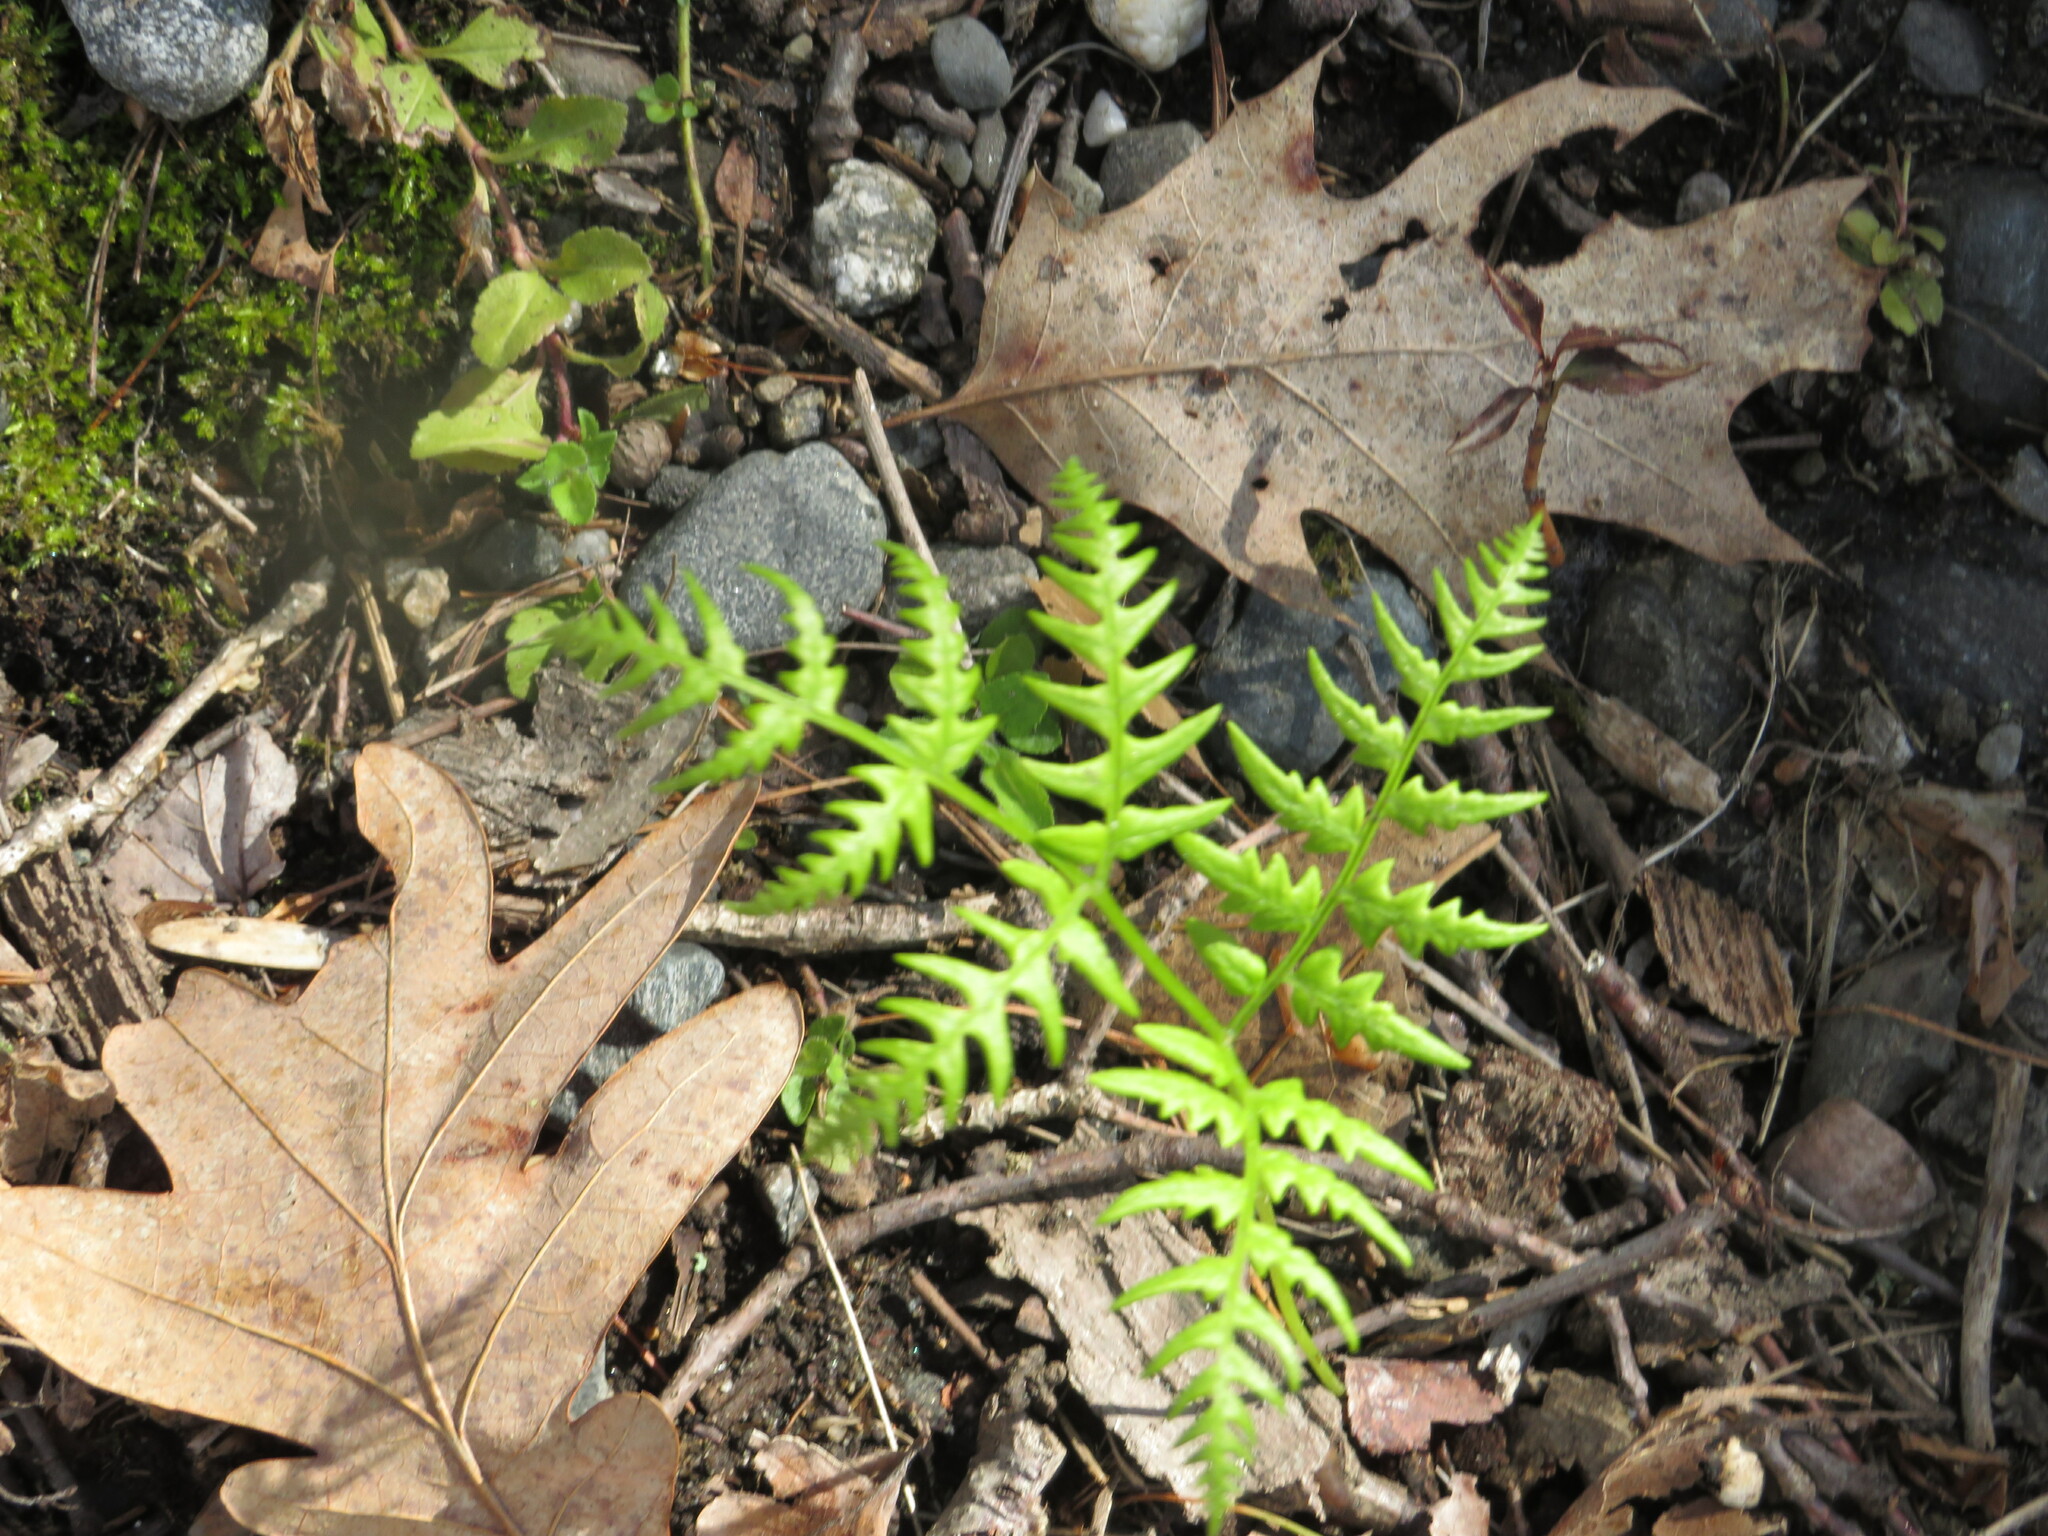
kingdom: Plantae
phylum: Tracheophyta
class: Polypodiopsida
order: Polypodiales
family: Dennstaedtiaceae
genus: Pteridium
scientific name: Pteridium aquilinum
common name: Bracken
